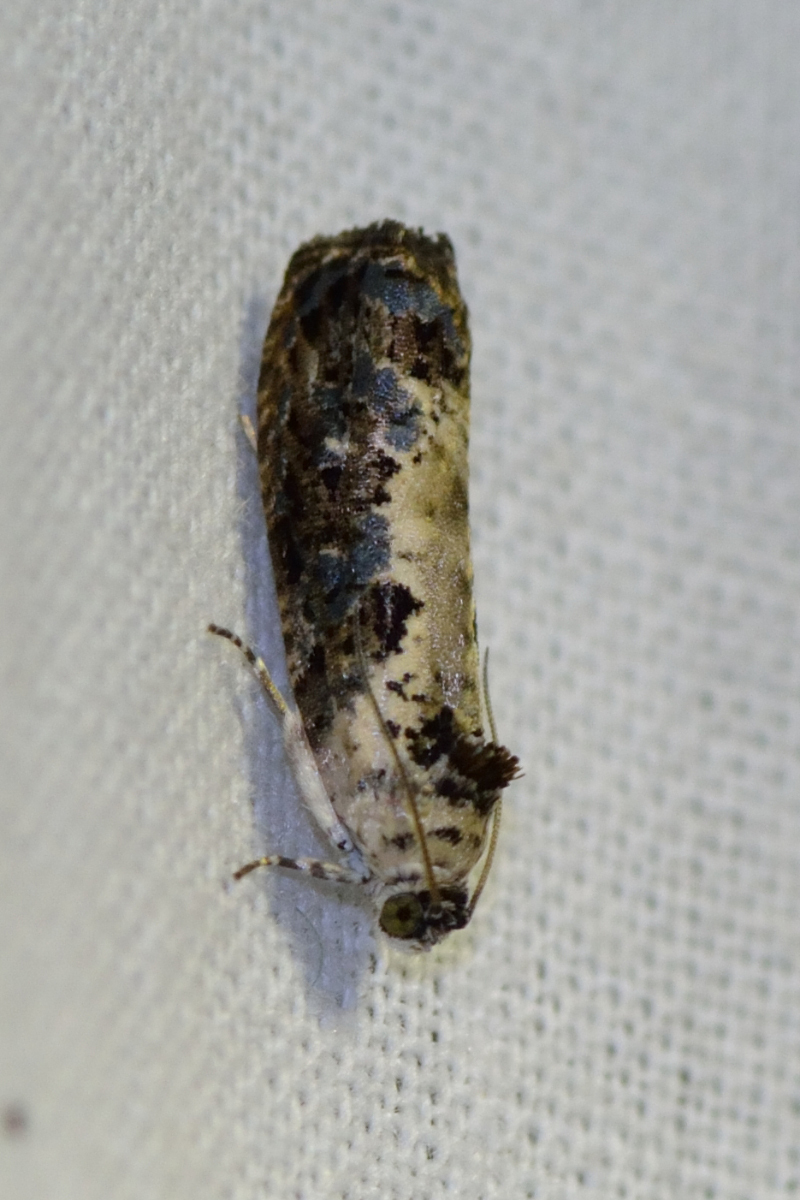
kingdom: Animalia
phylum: Arthropoda
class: Insecta
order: Lepidoptera
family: Tortricidae
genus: Hedya
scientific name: Hedya salicella
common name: Large tortricid moth
